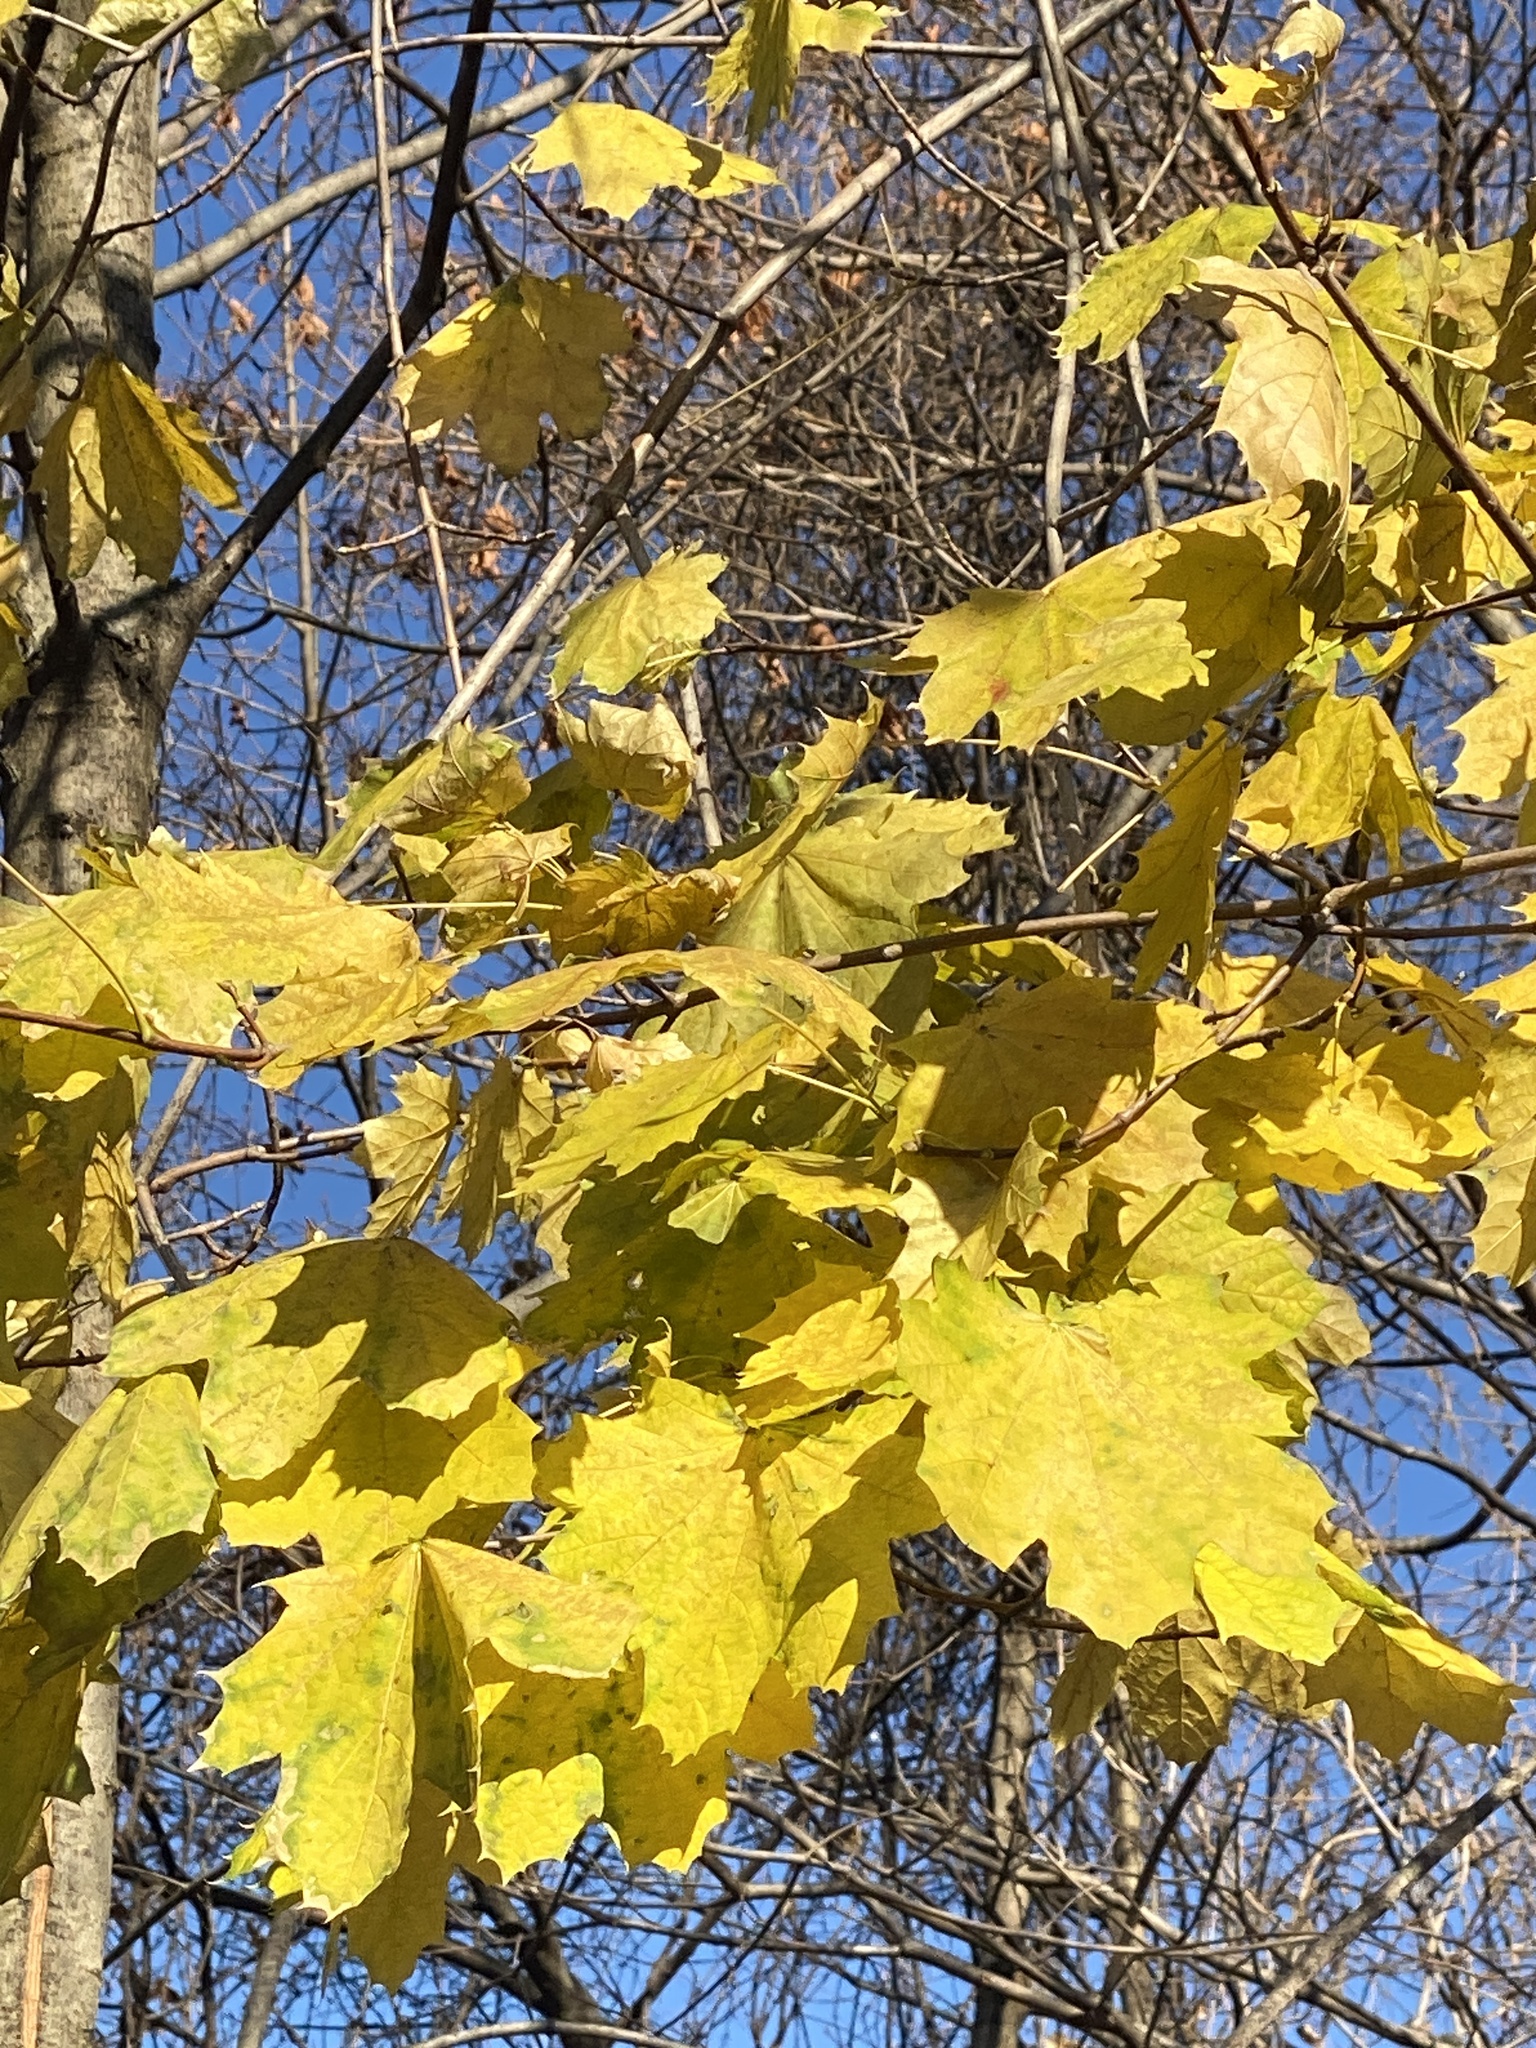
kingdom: Plantae
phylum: Tracheophyta
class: Magnoliopsida
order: Sapindales
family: Sapindaceae
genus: Acer
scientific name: Acer platanoides
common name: Norway maple
